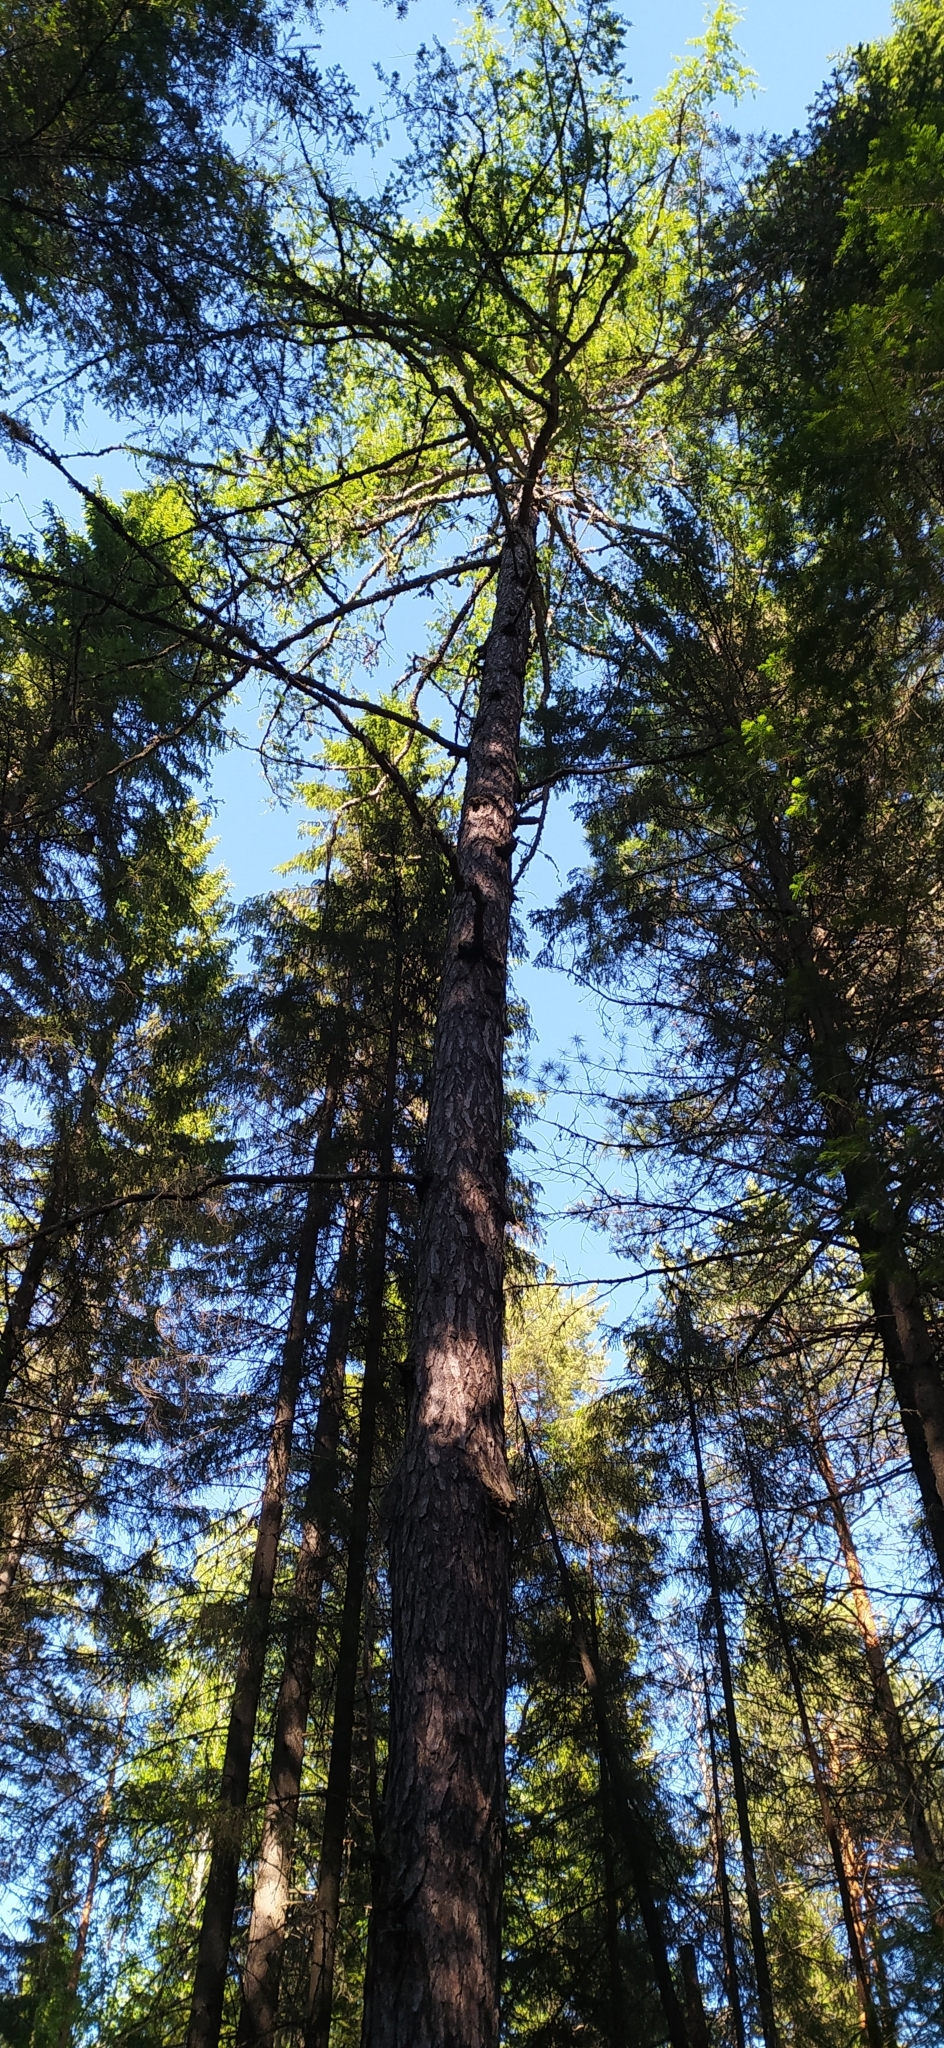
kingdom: Plantae
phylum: Tracheophyta
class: Pinopsida
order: Pinales
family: Pinaceae
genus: Larix
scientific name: Larix sibirica
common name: Siberian larch
